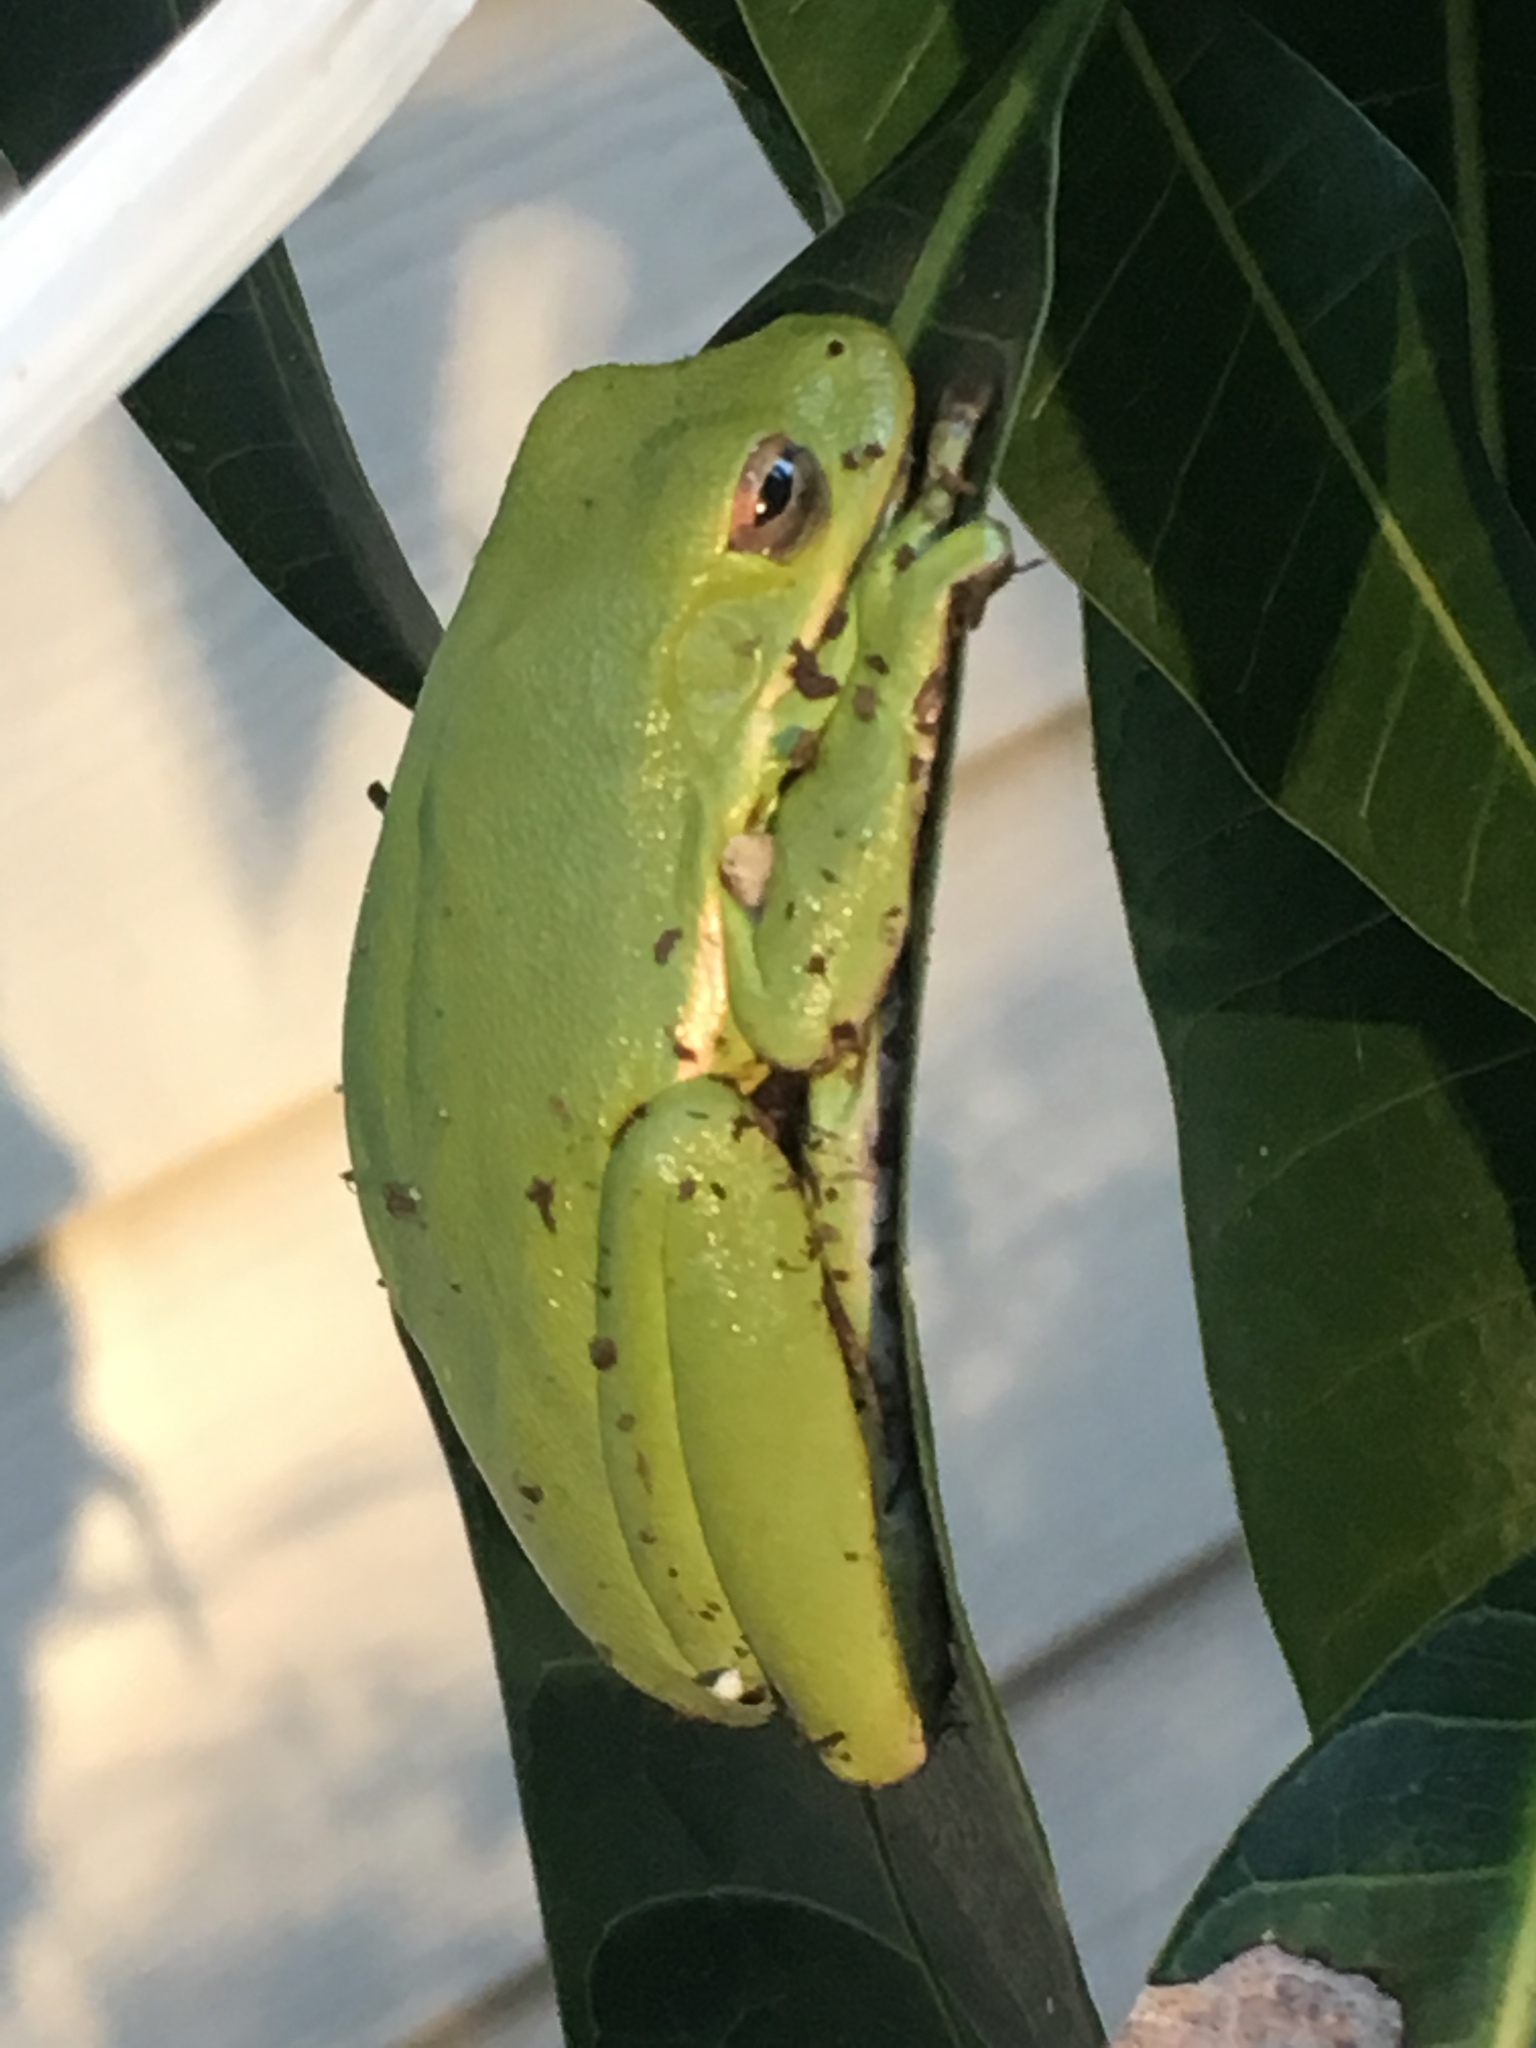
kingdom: Animalia
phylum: Chordata
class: Amphibia
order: Anura
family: Hylidae
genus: Dryophytes
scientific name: Dryophytes cinereus
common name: Green treefrog
